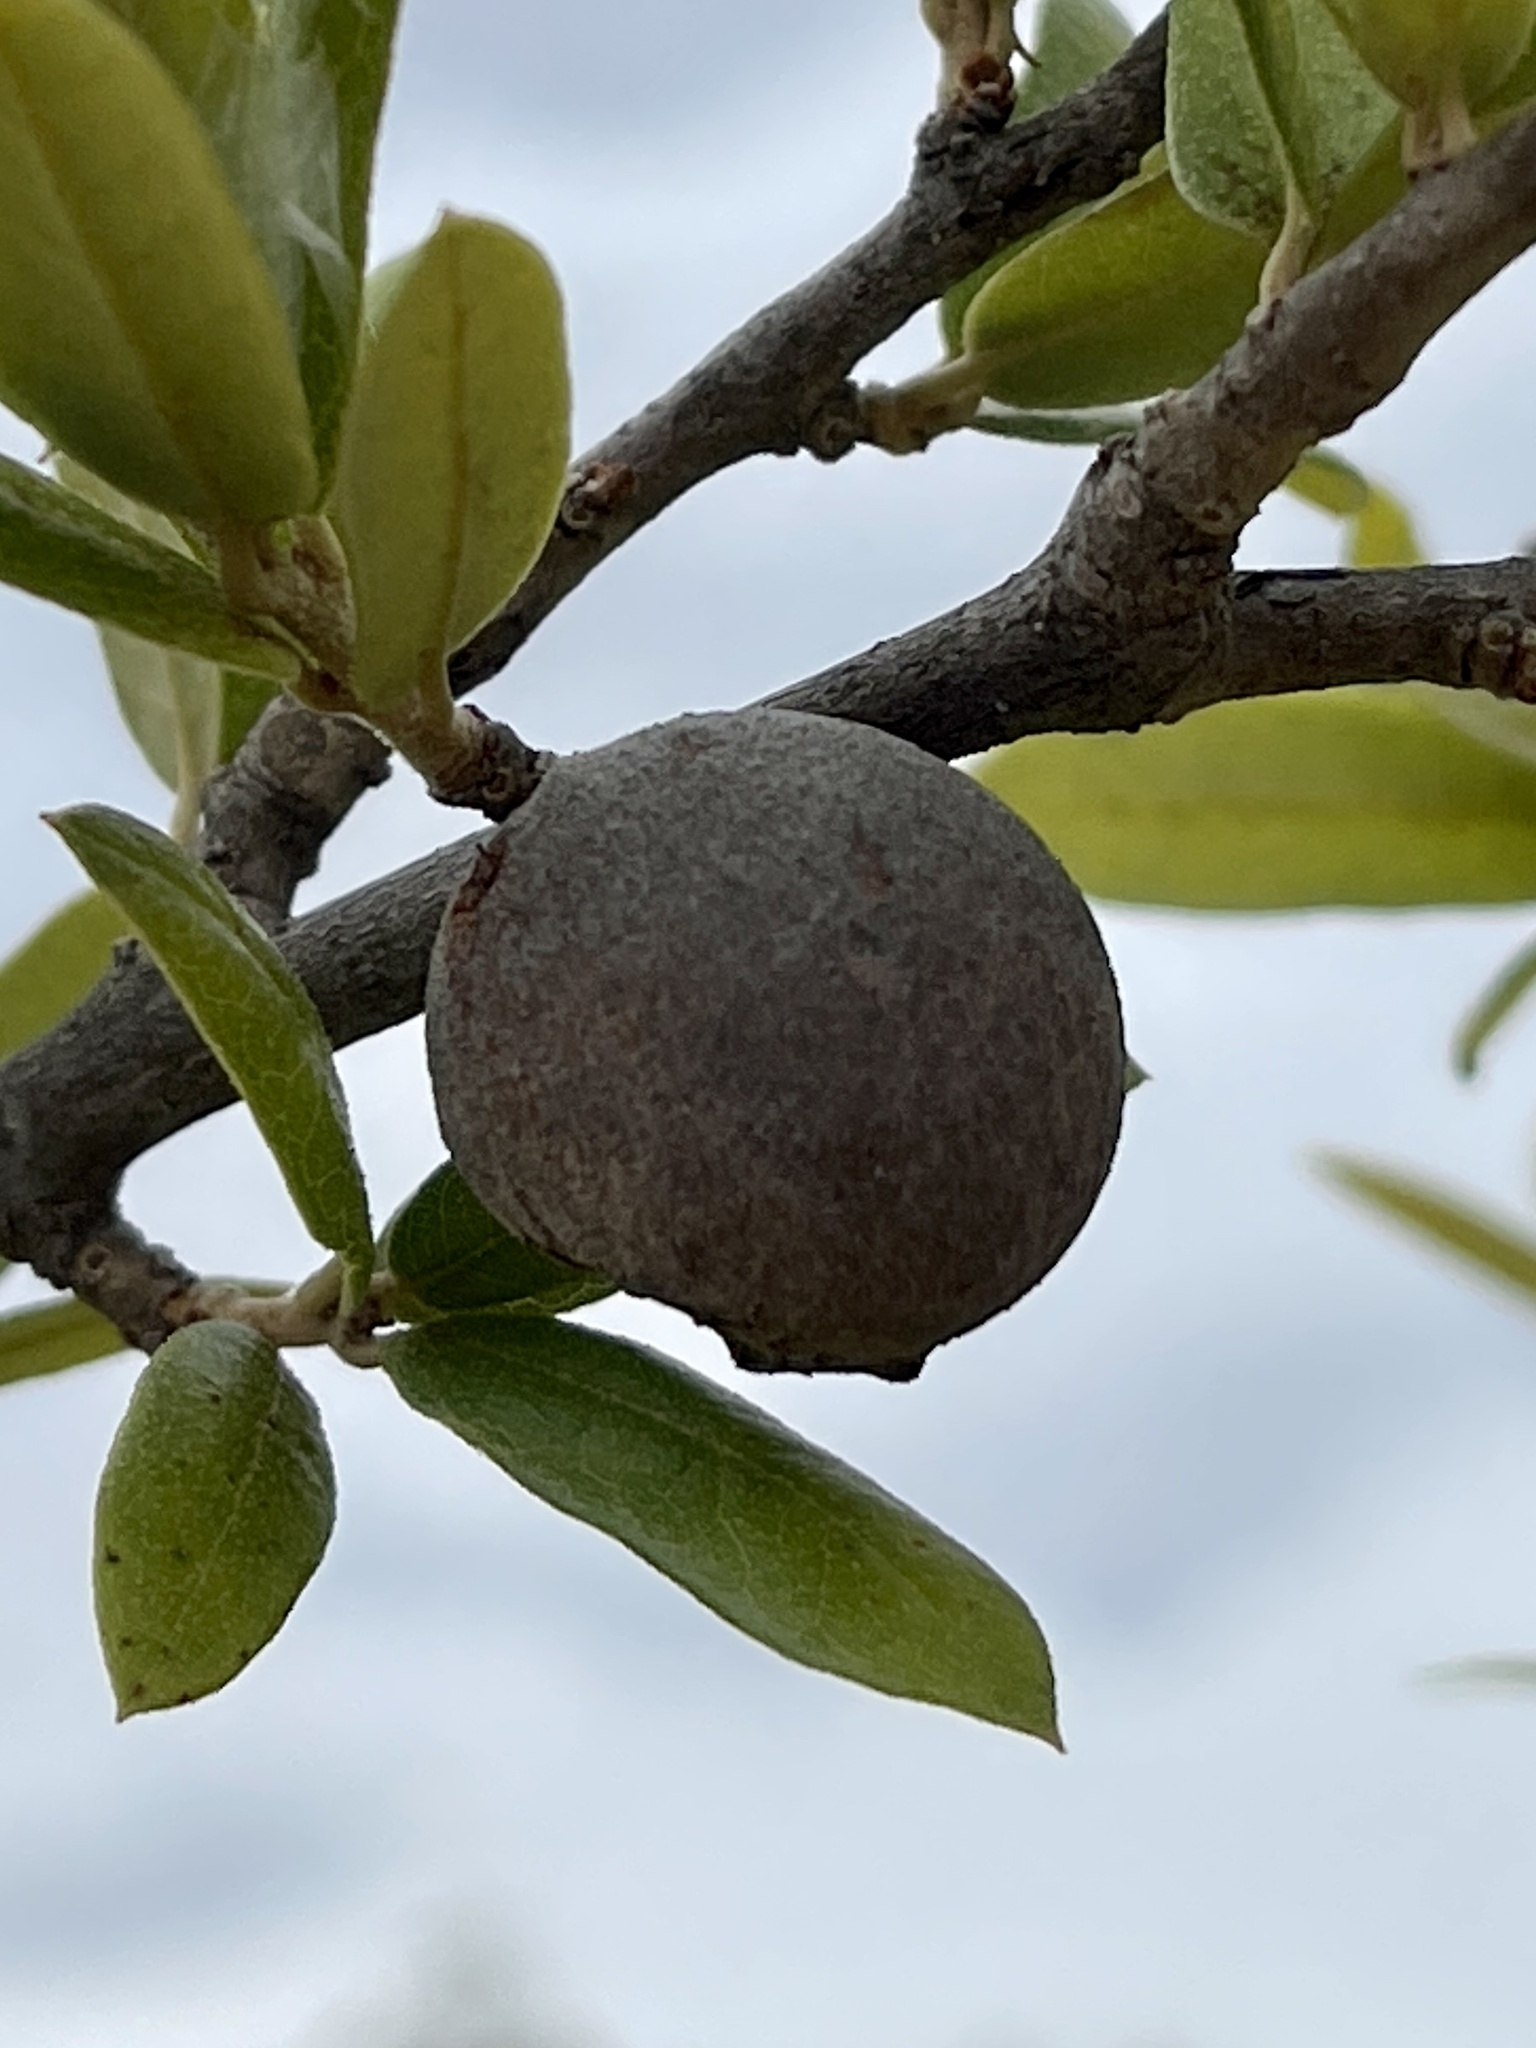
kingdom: Animalia
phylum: Arthropoda
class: Insecta
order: Hymenoptera
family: Cynipidae
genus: Disholcaspis
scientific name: Disholcaspis
